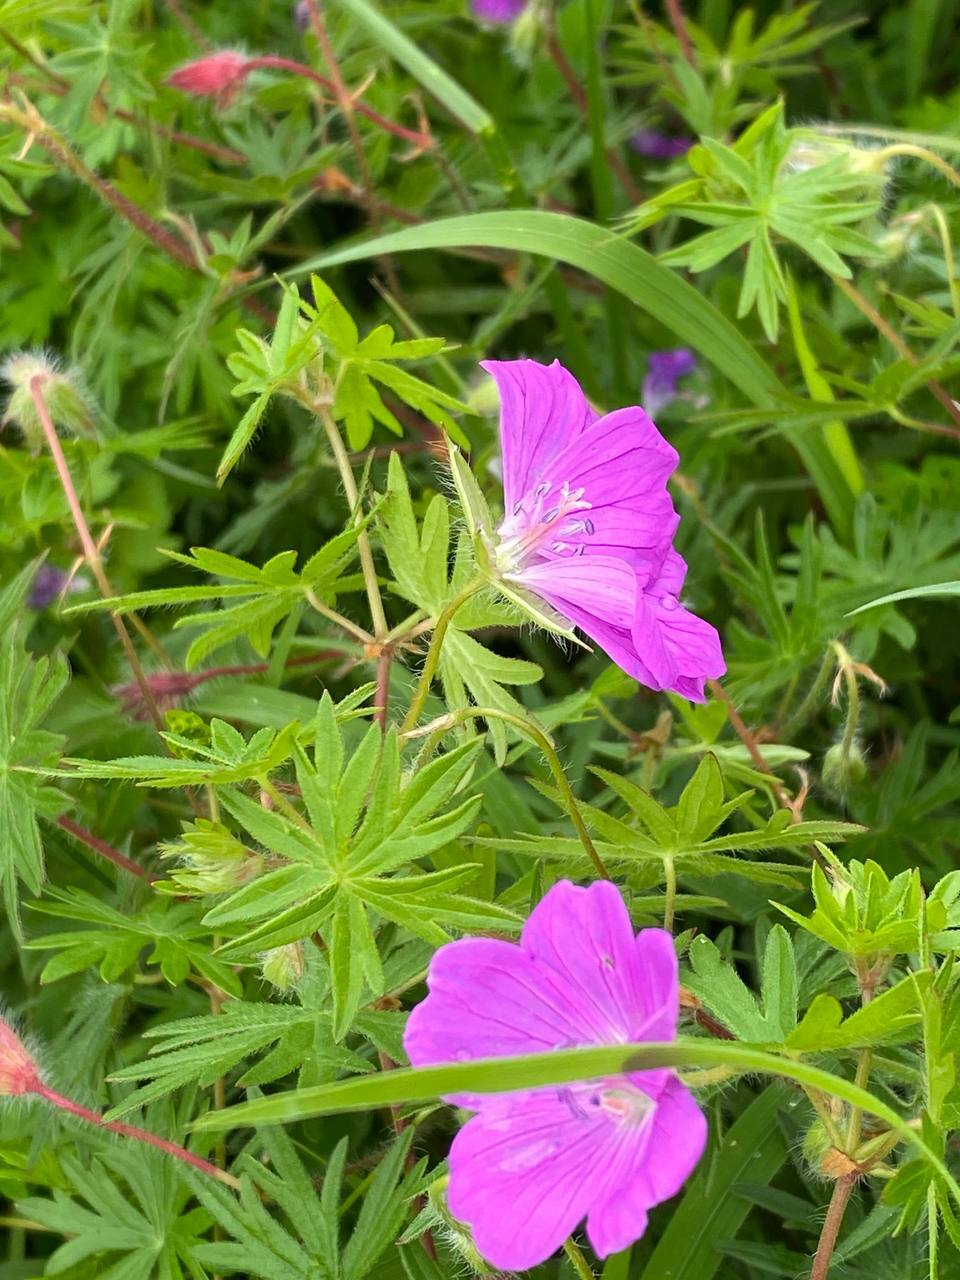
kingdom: Plantae
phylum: Tracheophyta
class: Magnoliopsida
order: Geraniales
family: Geraniaceae
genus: Geranium
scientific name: Geranium sanguineum
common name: Bloody crane's-bill
